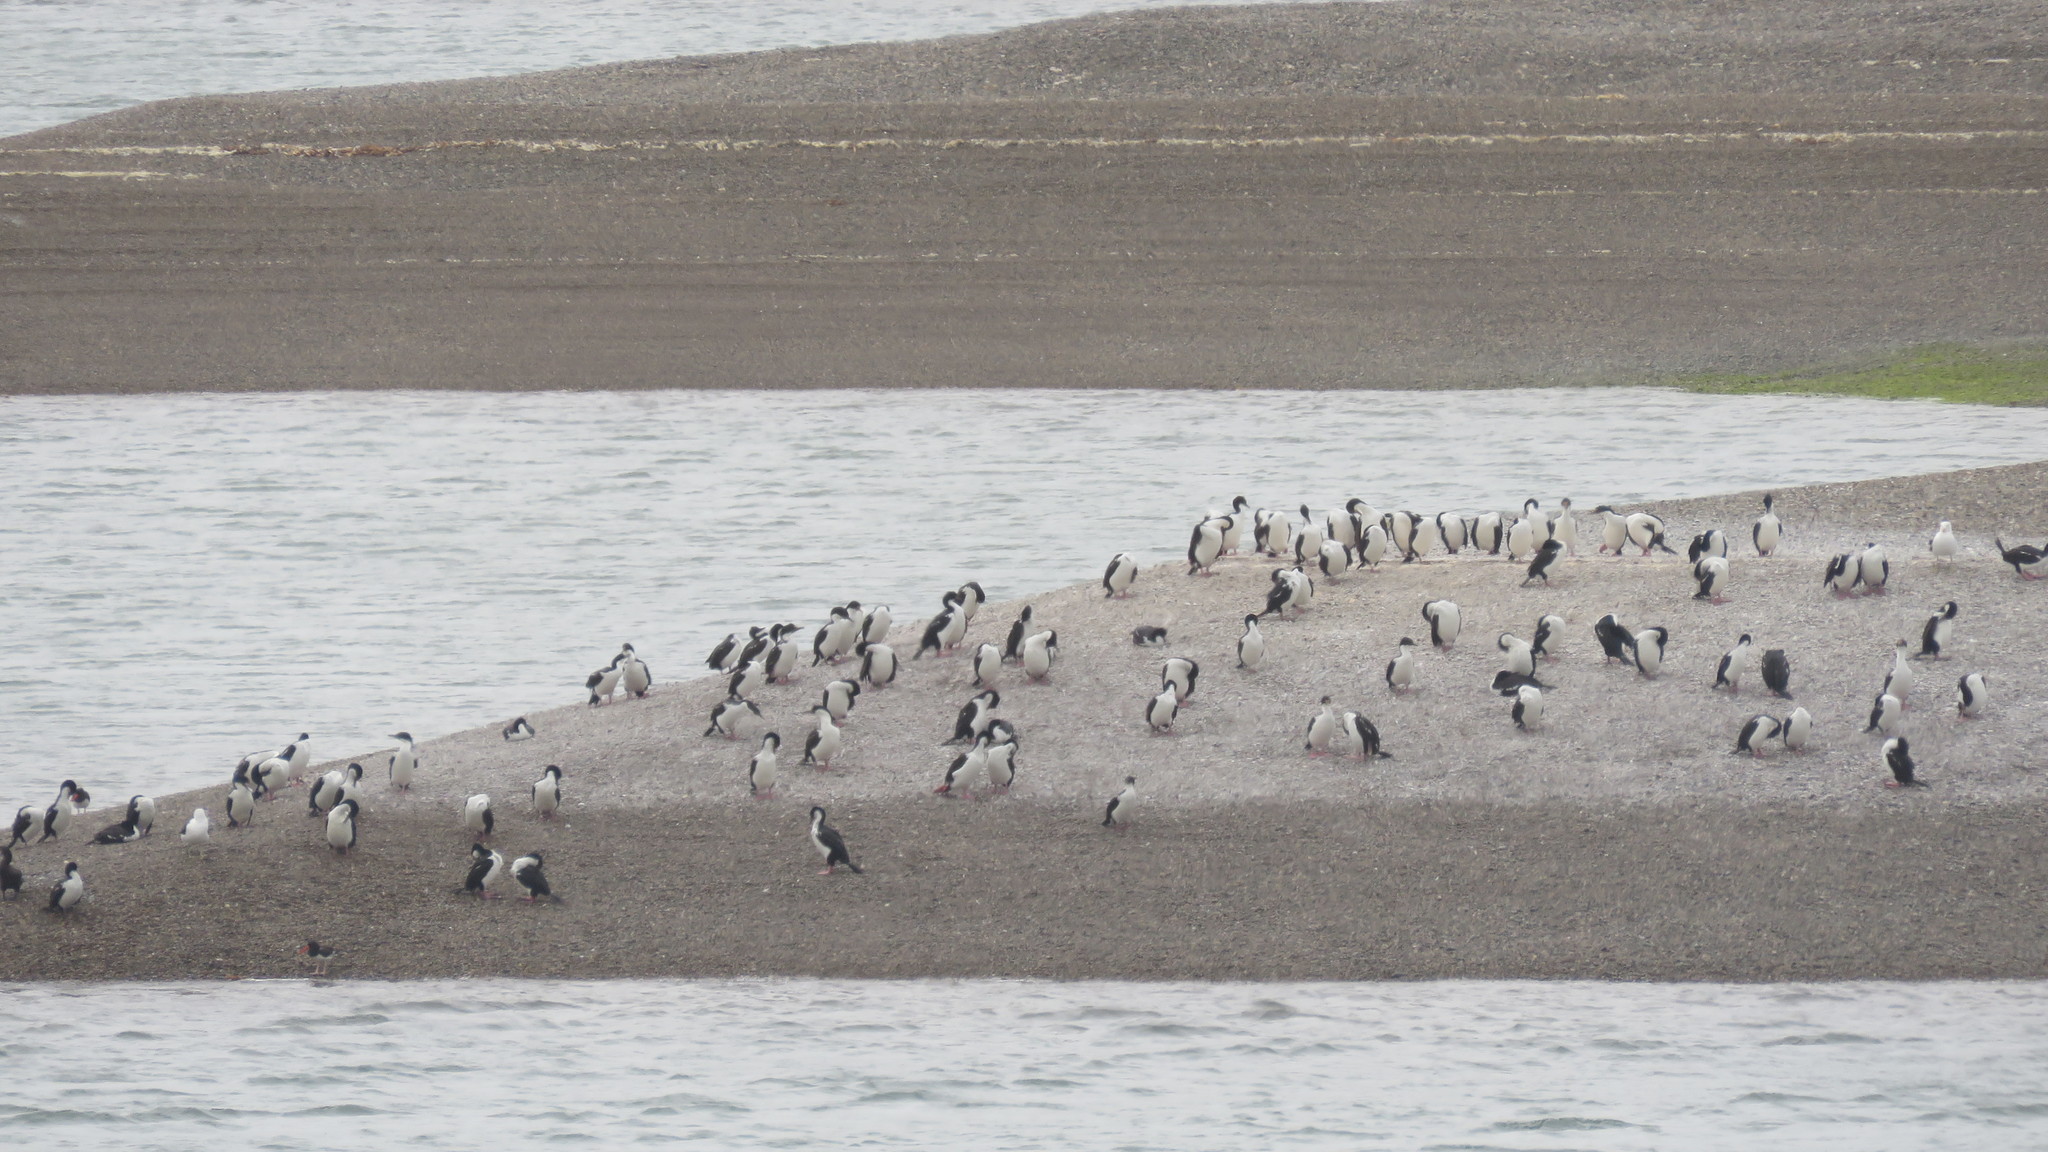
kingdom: Animalia
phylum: Chordata
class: Aves
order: Suliformes
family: Phalacrocoracidae
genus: Leucocarbo
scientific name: Leucocarbo atriceps
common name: Imperial shag
